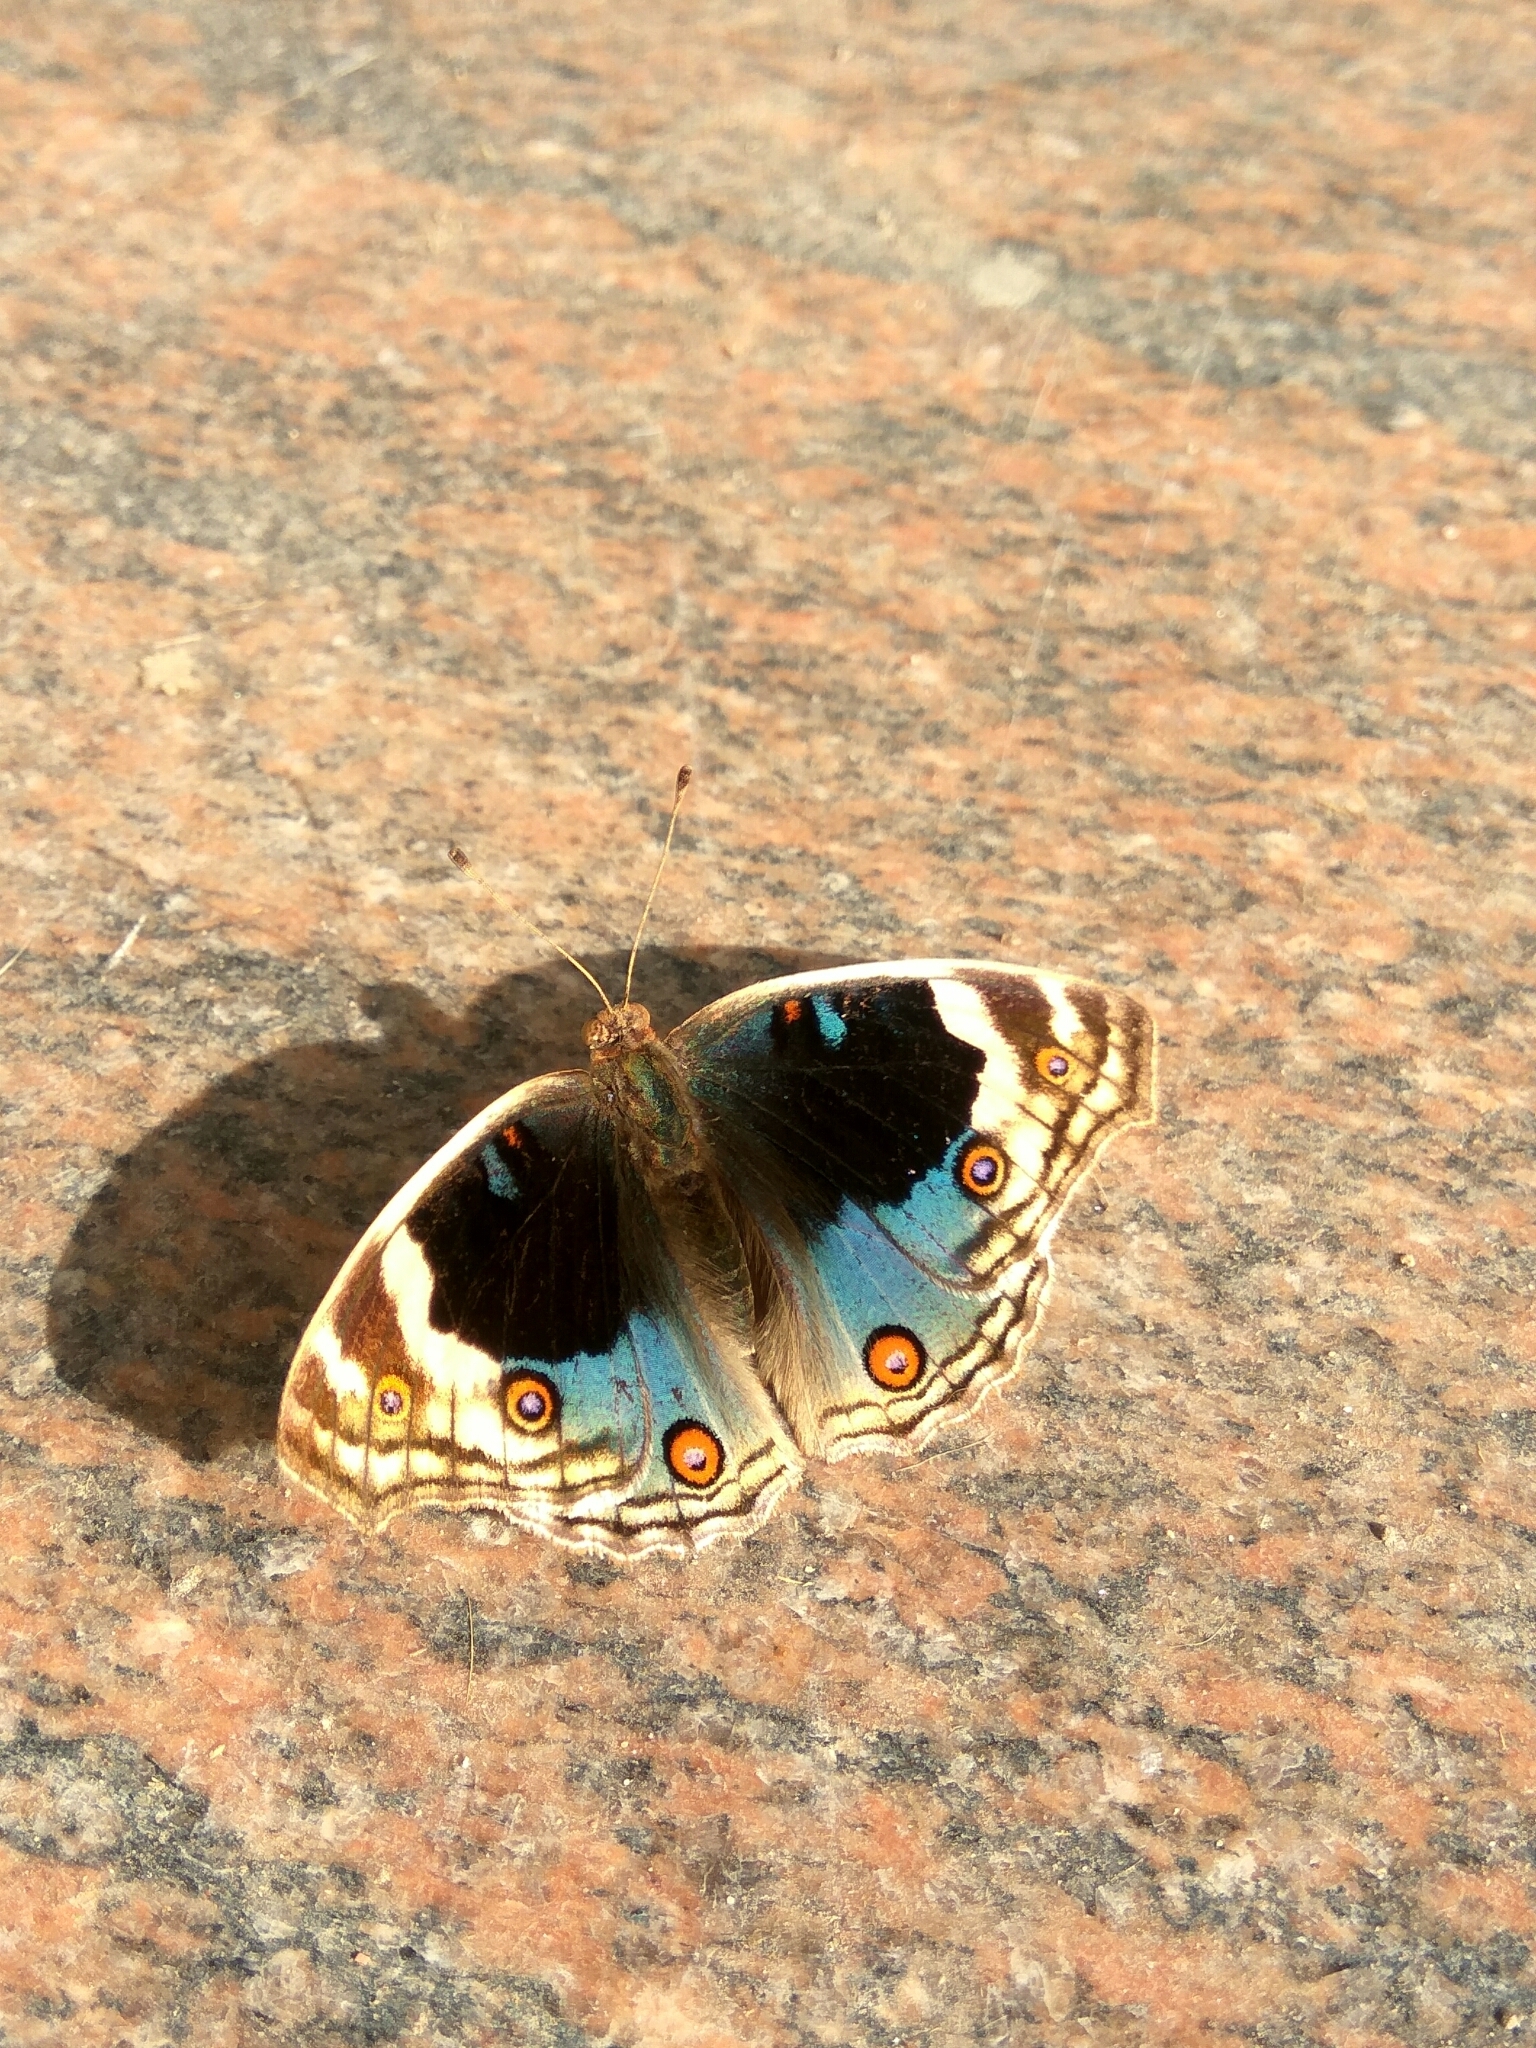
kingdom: Animalia
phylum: Arthropoda
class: Insecta
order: Lepidoptera
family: Nymphalidae
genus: Junonia
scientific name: Junonia orithya
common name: Blue pansy
